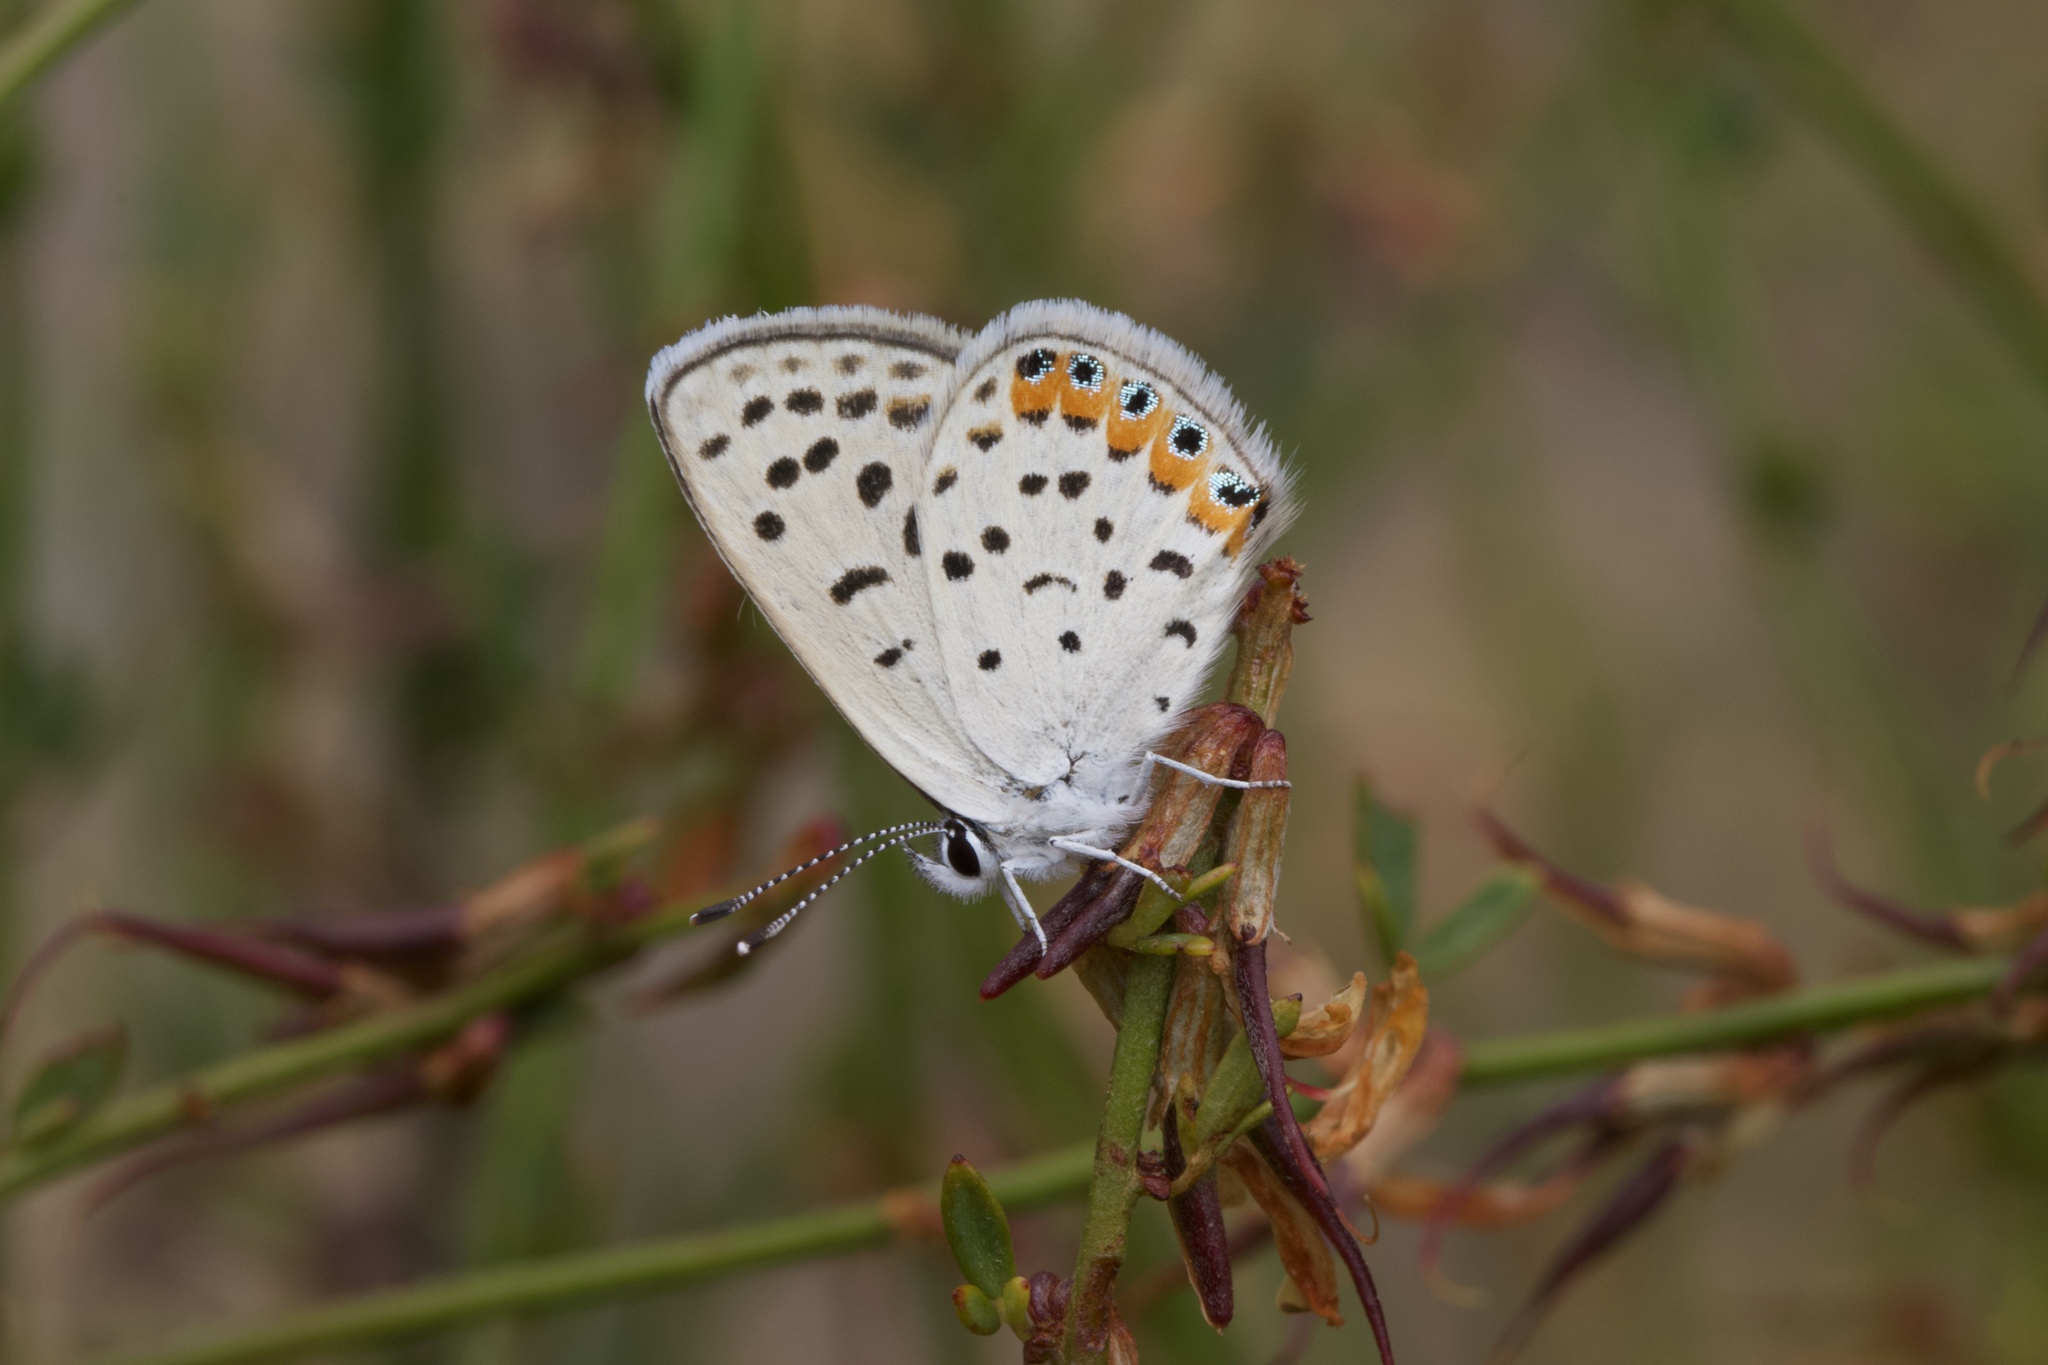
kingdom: Animalia
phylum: Arthropoda
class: Insecta
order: Lepidoptera
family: Lycaenidae
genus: Icaricia
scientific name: Icaricia acmon
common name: Acmon blue
